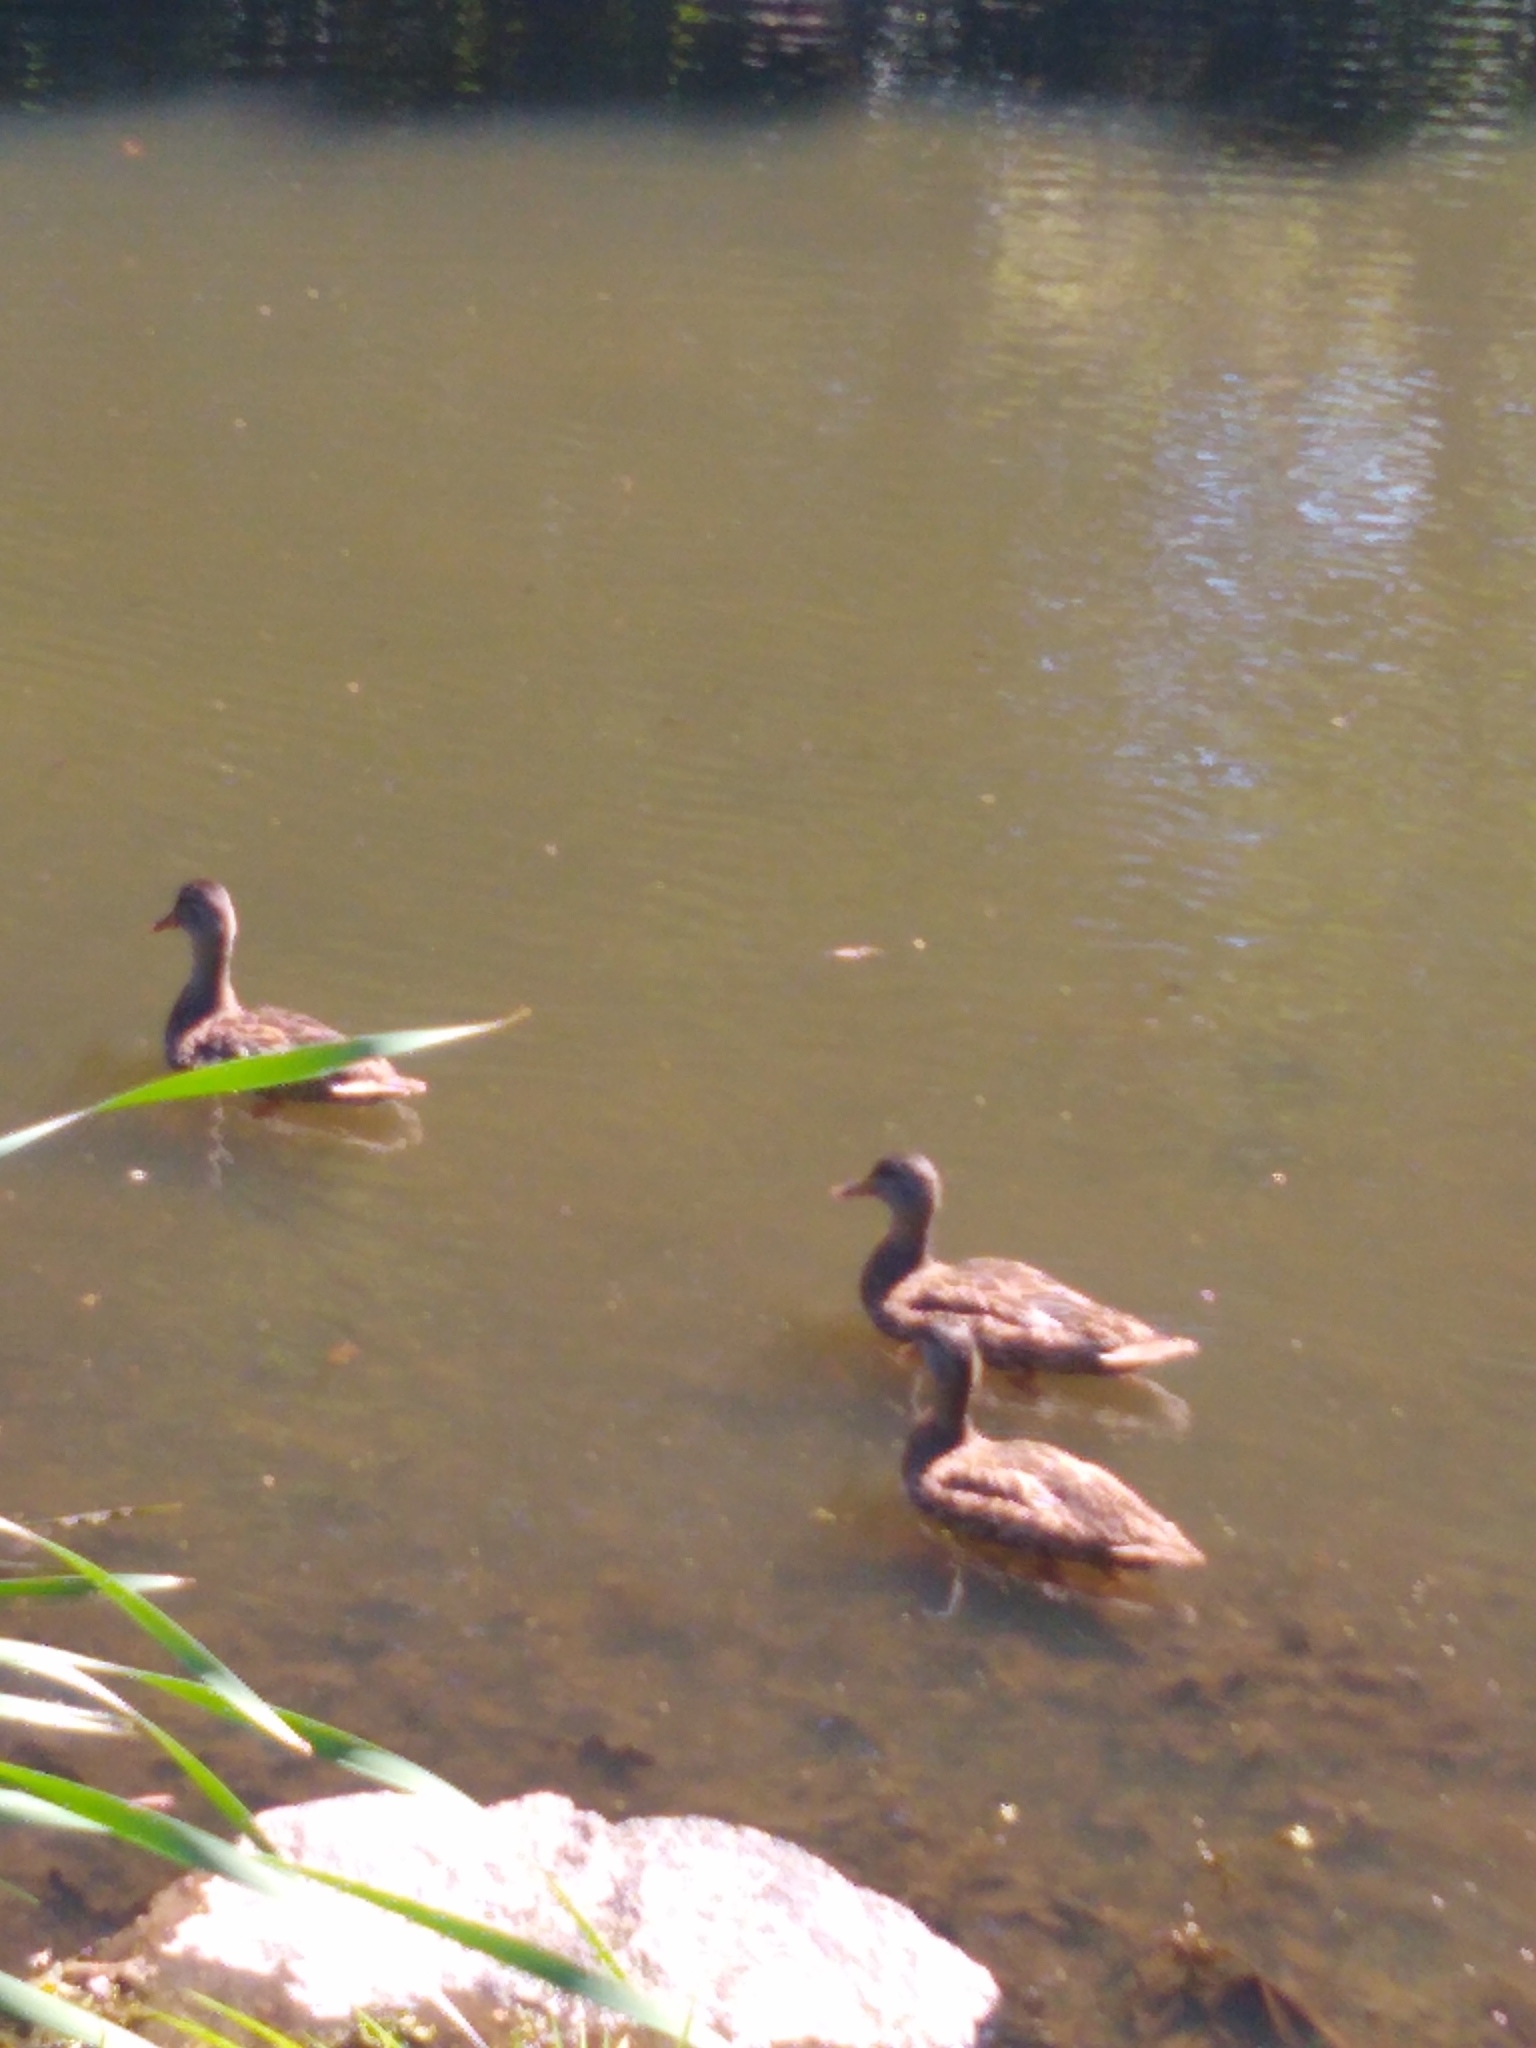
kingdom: Animalia
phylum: Chordata
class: Aves
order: Anseriformes
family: Anatidae
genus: Anas
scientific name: Anas platyrhynchos
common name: Mallard
